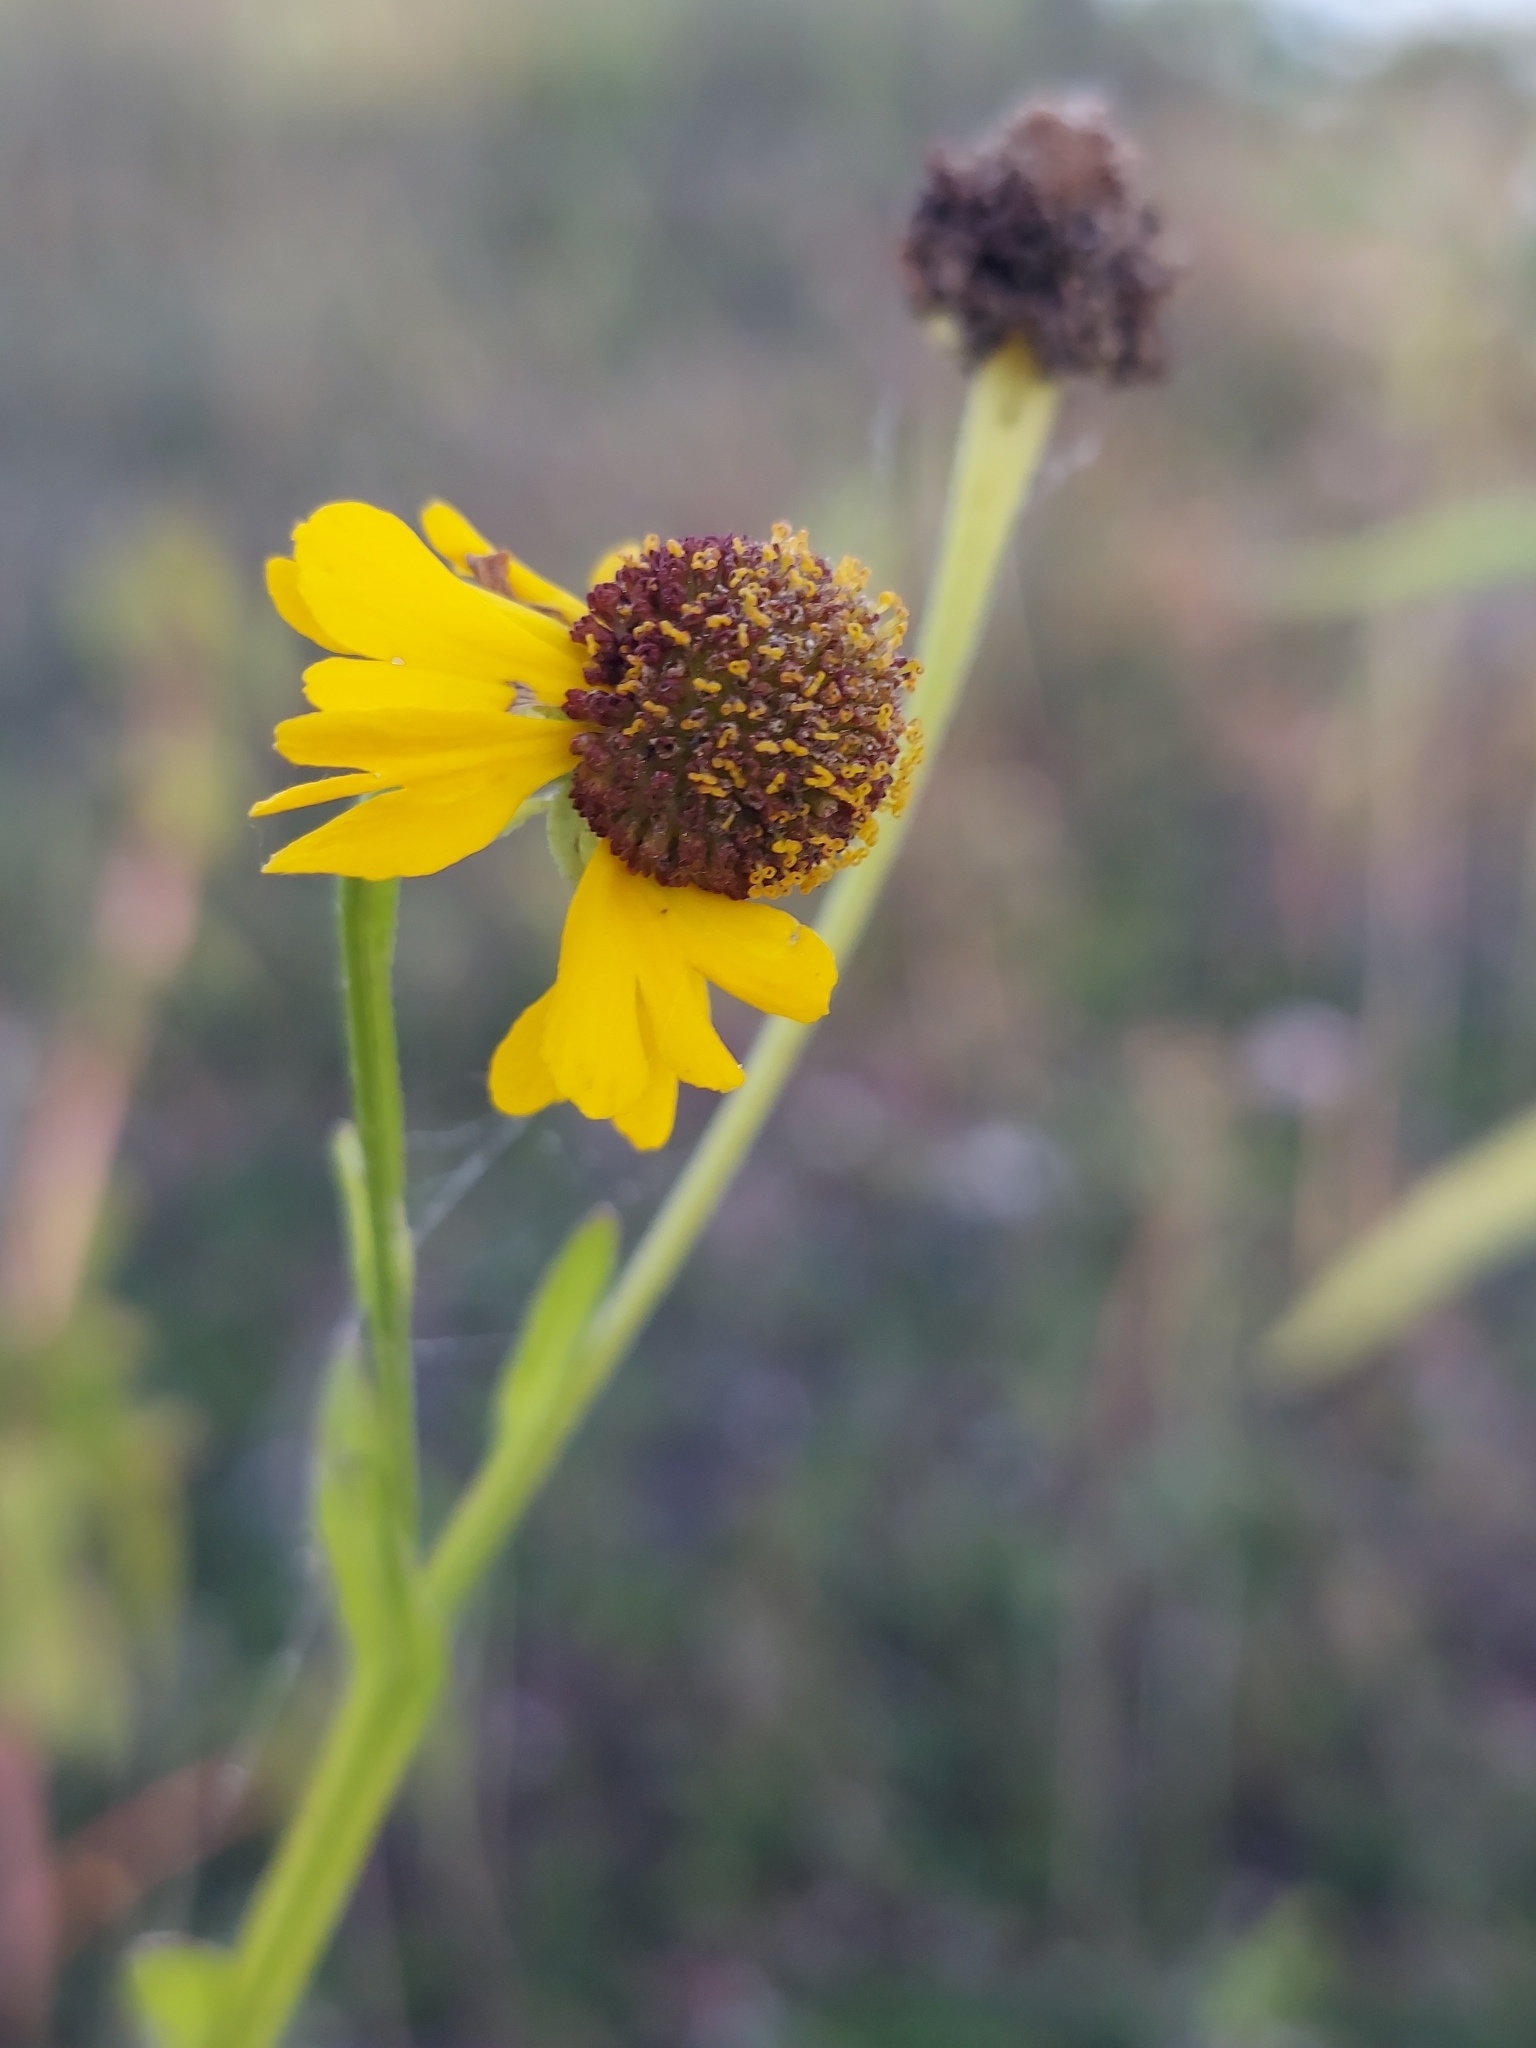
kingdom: Plantae
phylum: Tracheophyta
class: Magnoliopsida
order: Asterales
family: Asteraceae
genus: Helenium
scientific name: Helenium flexuosum
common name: Naked-flowered sneezeweed
